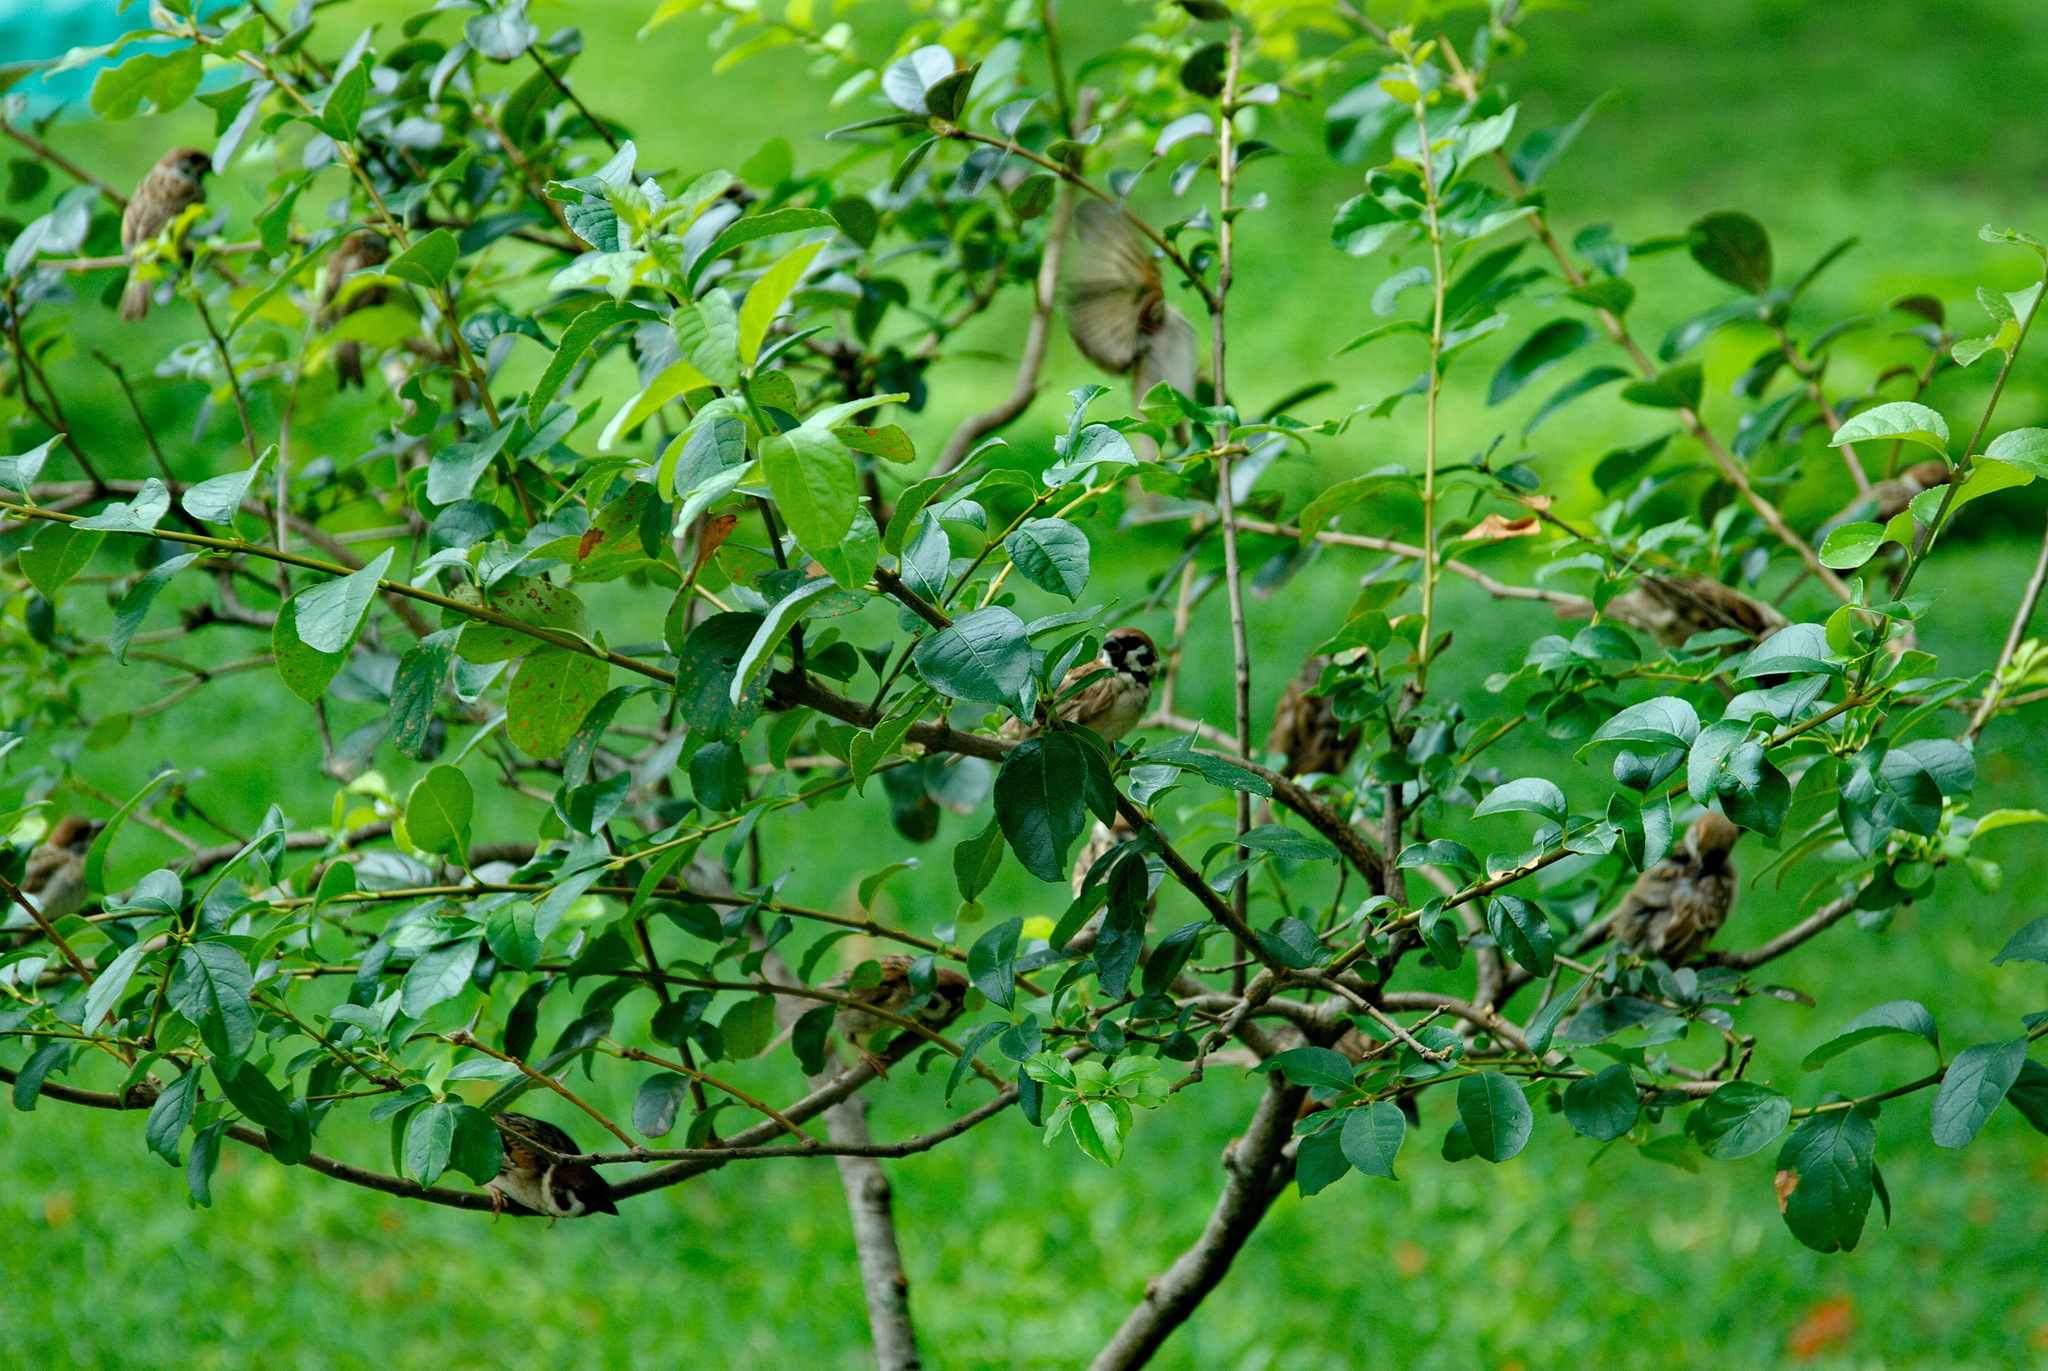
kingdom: Animalia
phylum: Chordata
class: Aves
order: Passeriformes
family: Passeridae
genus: Passer
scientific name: Passer montanus
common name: Eurasian tree sparrow
